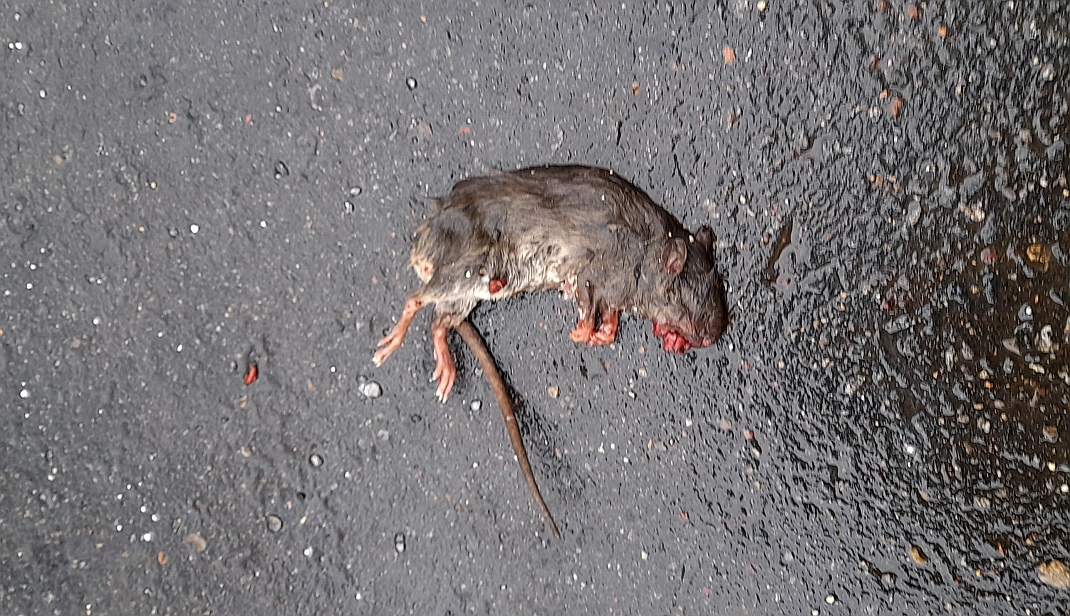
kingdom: Animalia
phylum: Chordata
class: Mammalia
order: Rodentia
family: Muridae
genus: Rattus
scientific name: Rattus norvegicus
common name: Brown rat
